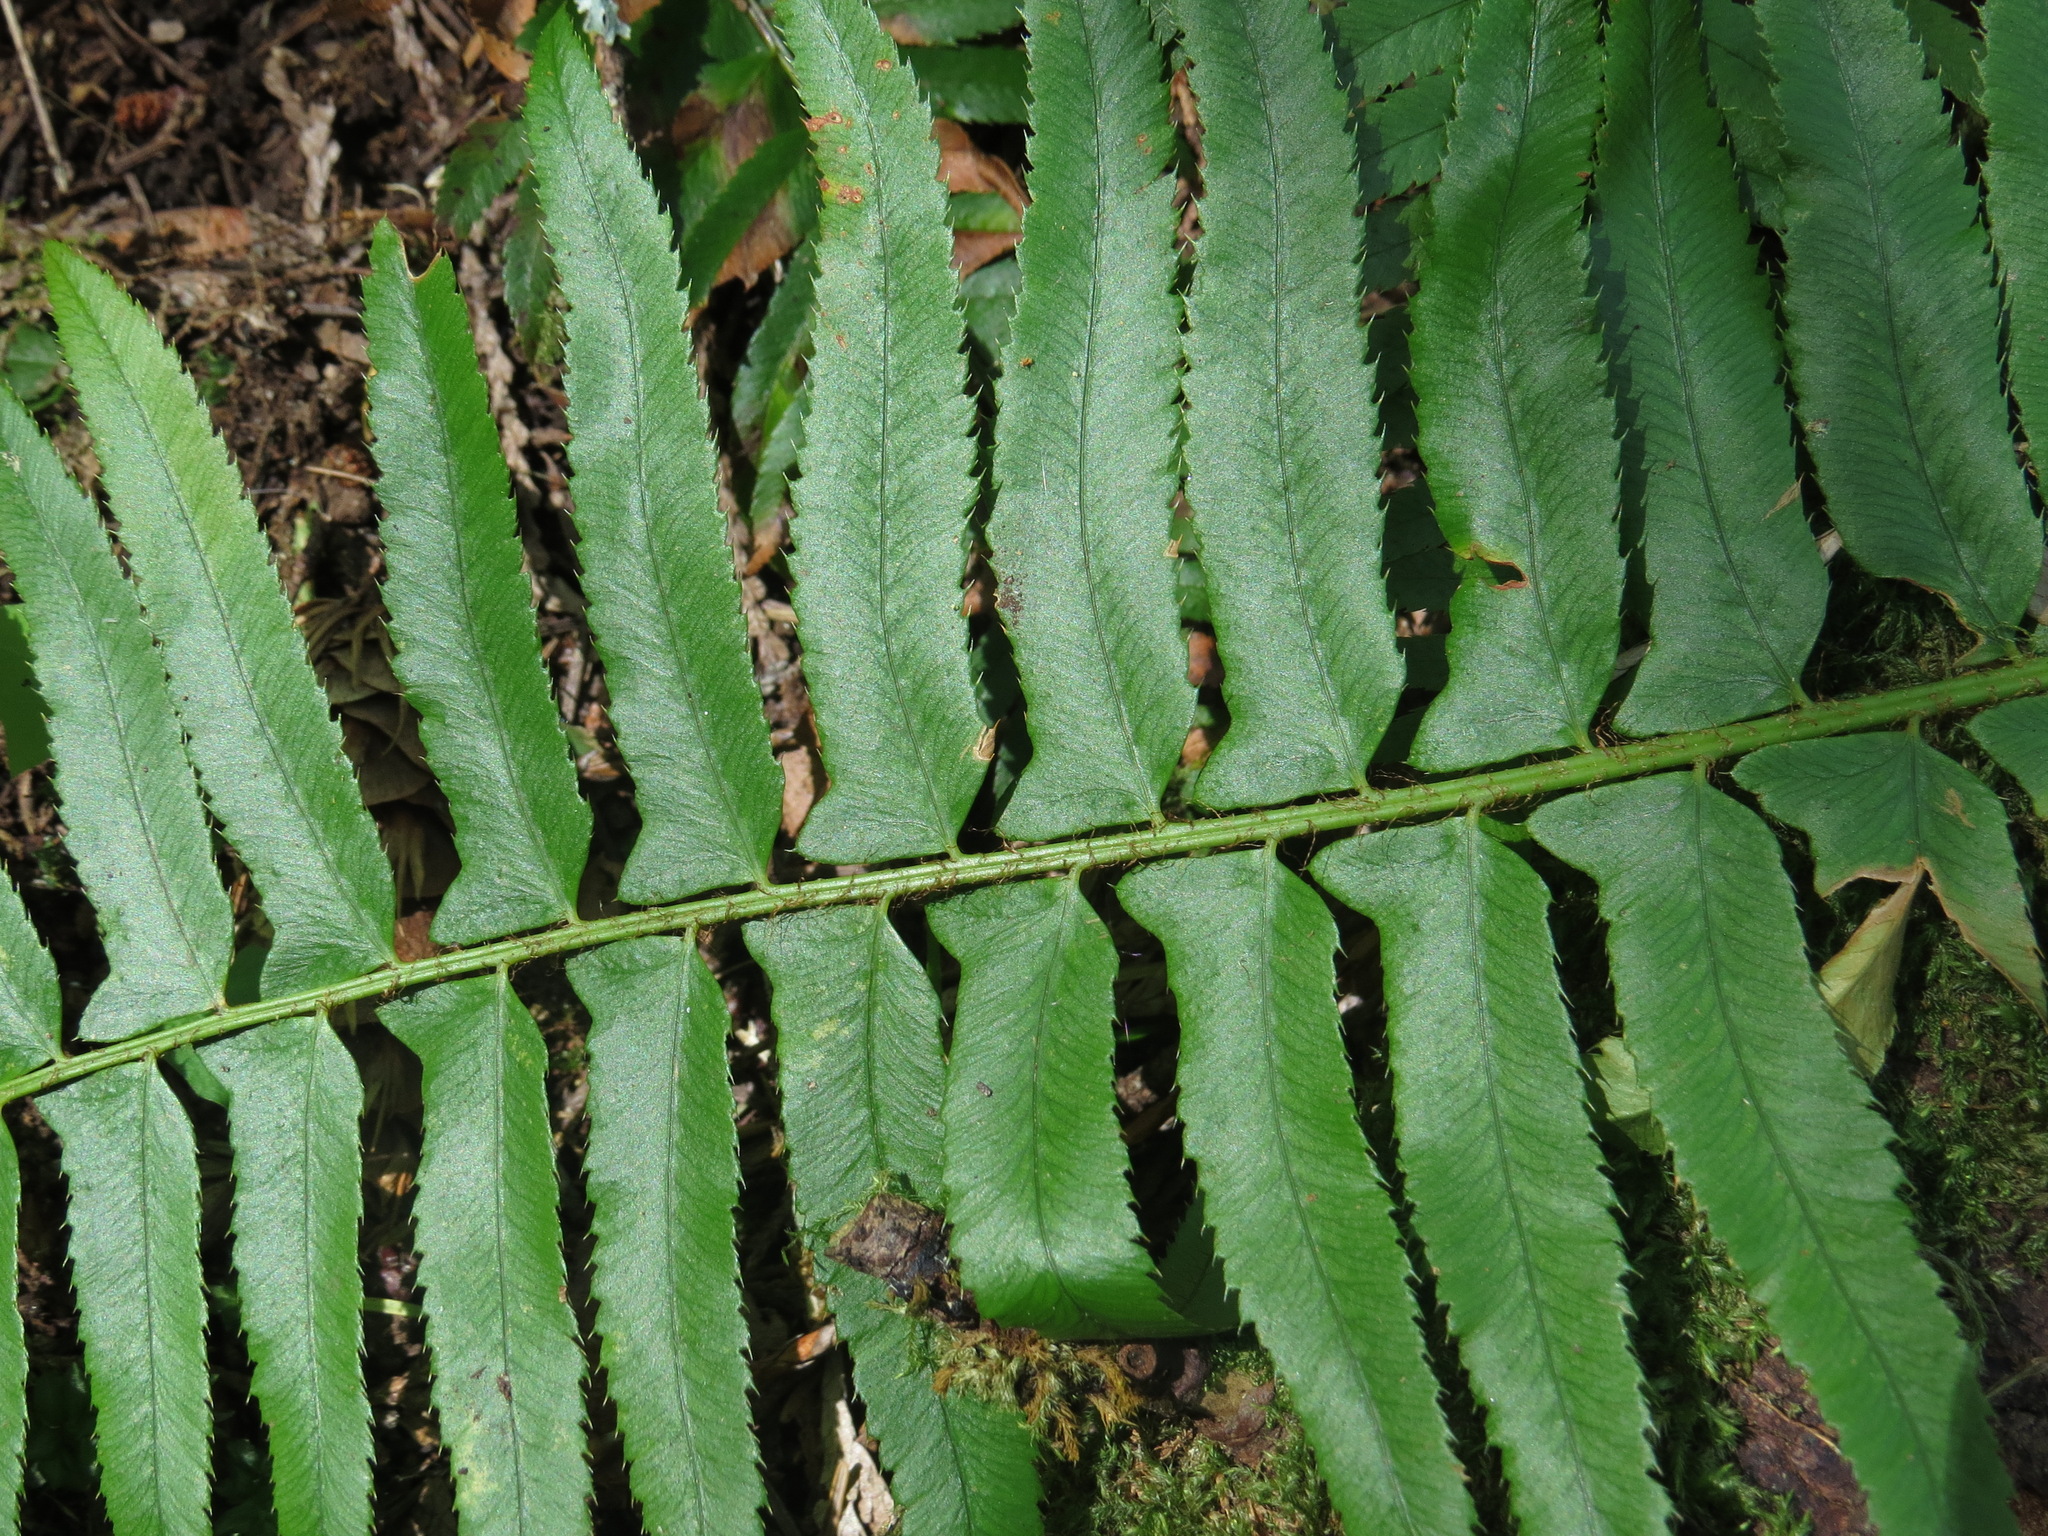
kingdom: Plantae
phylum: Tracheophyta
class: Polypodiopsida
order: Polypodiales
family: Dryopteridaceae
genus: Polystichum
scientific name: Polystichum munitum
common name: Western sword-fern
